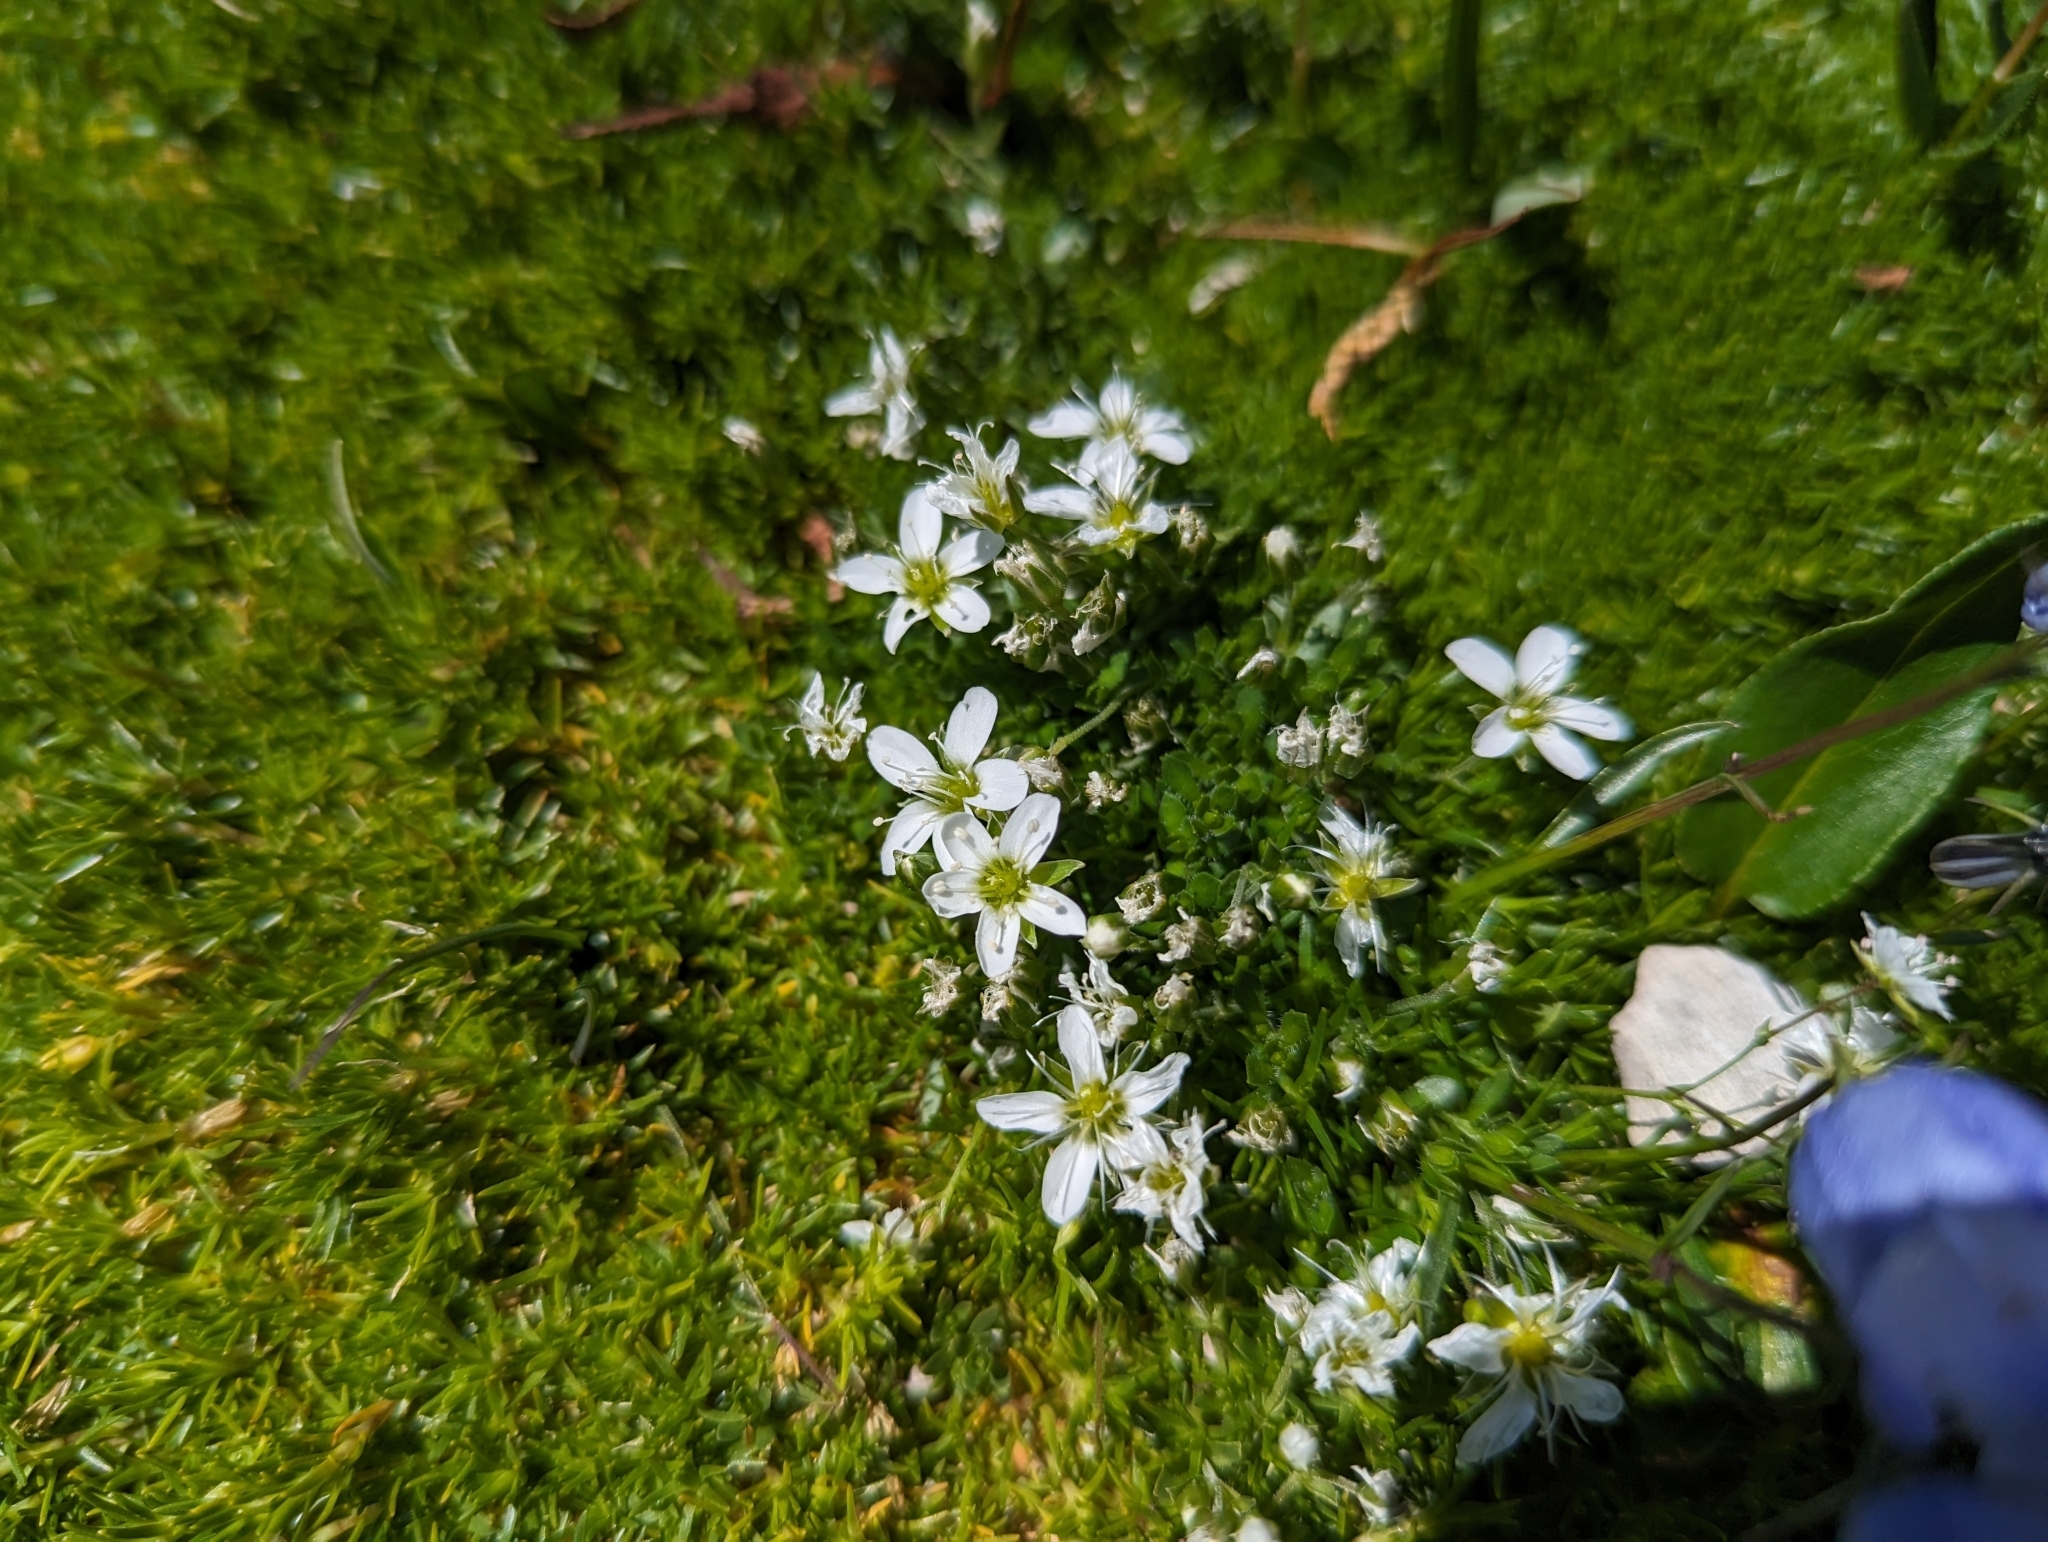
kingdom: Plantae
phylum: Tracheophyta
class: Magnoliopsida
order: Caryophyllales
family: Caryophyllaceae
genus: Sabulina
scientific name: Sabulina verna
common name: Spring sandwort
